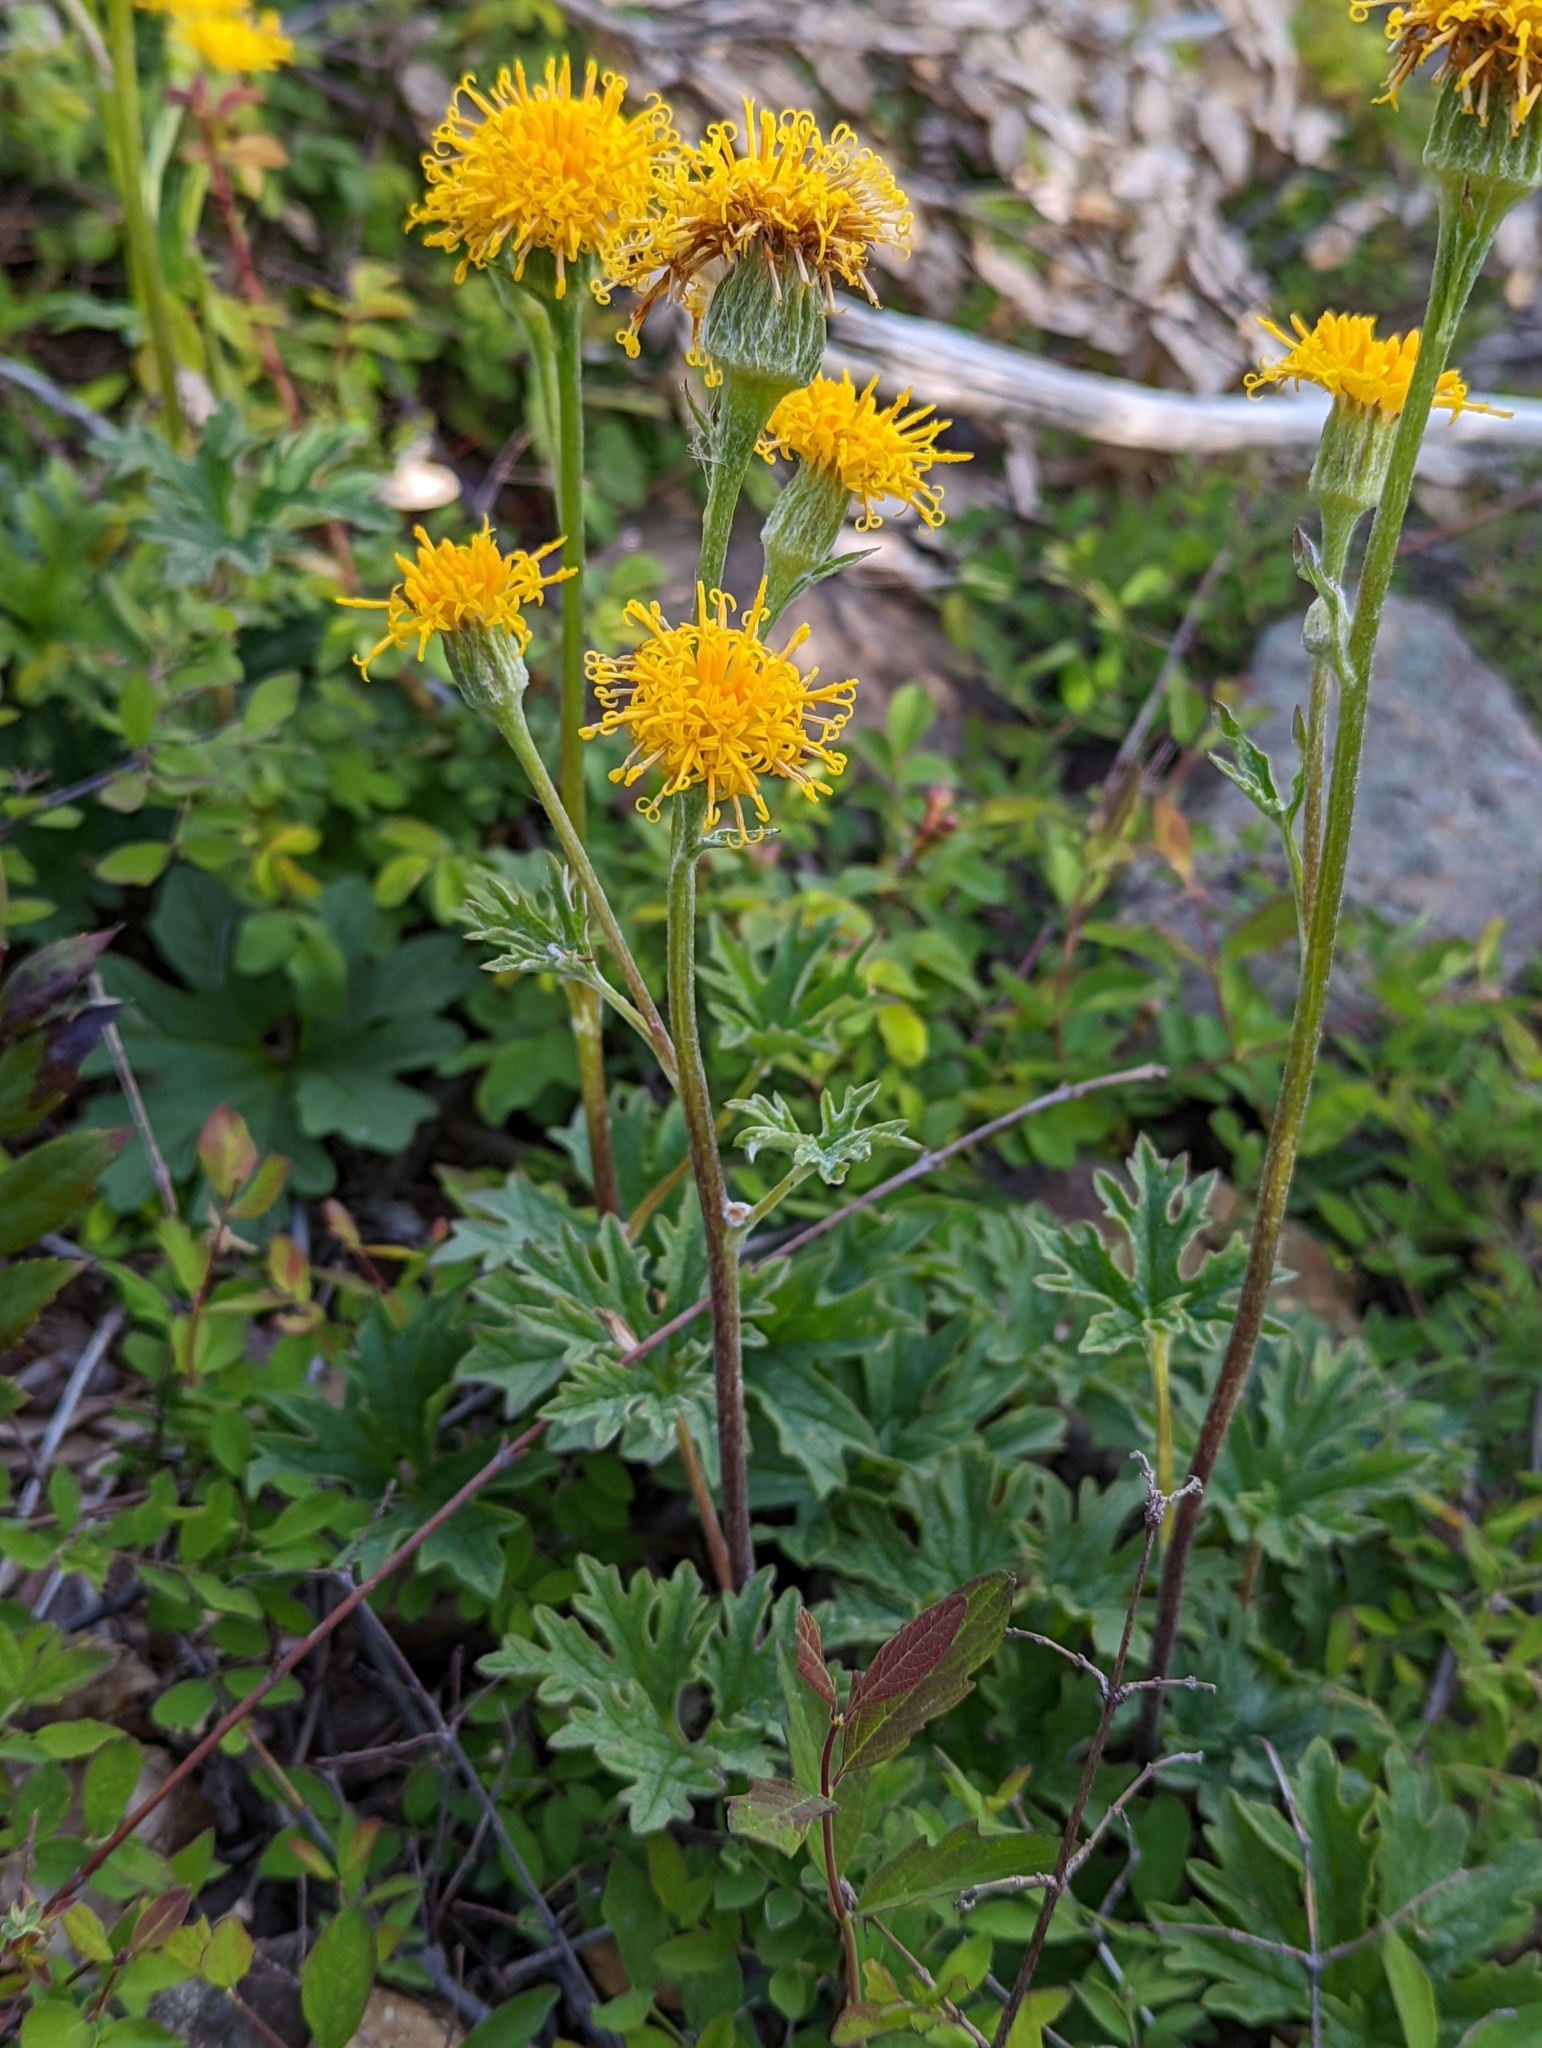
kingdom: Plantae
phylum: Tracheophyta
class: Magnoliopsida
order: Asterales
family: Asteraceae
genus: Cacaliopsis
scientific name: Cacaliopsis nardosmia
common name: Silvercrown
